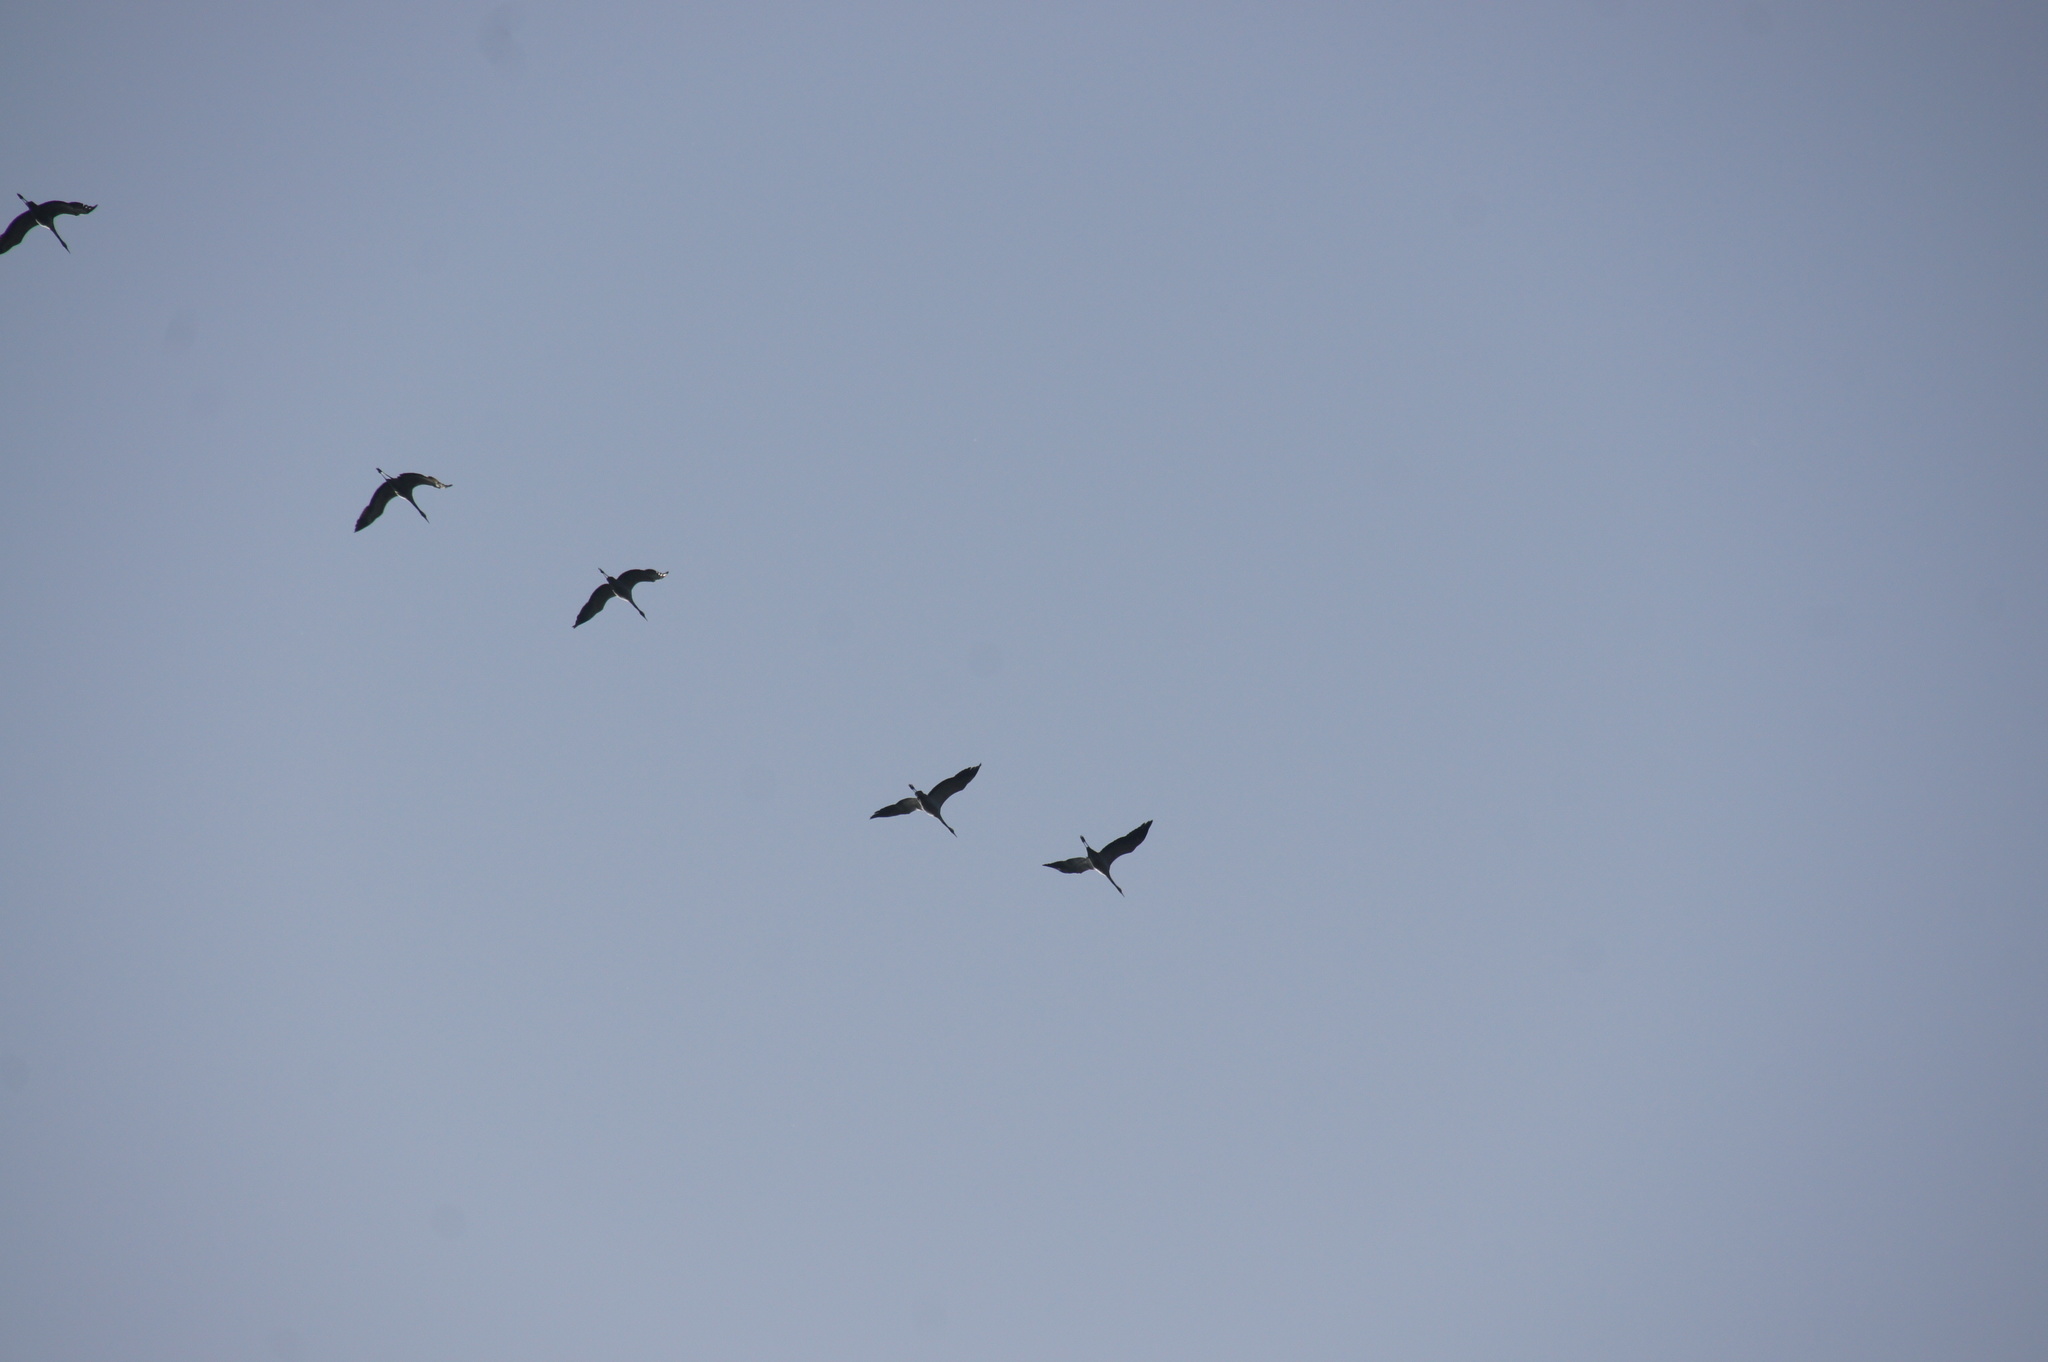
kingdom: Animalia
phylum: Chordata
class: Aves
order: Gruiformes
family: Gruidae
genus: Grus
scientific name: Grus grus
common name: Common crane
